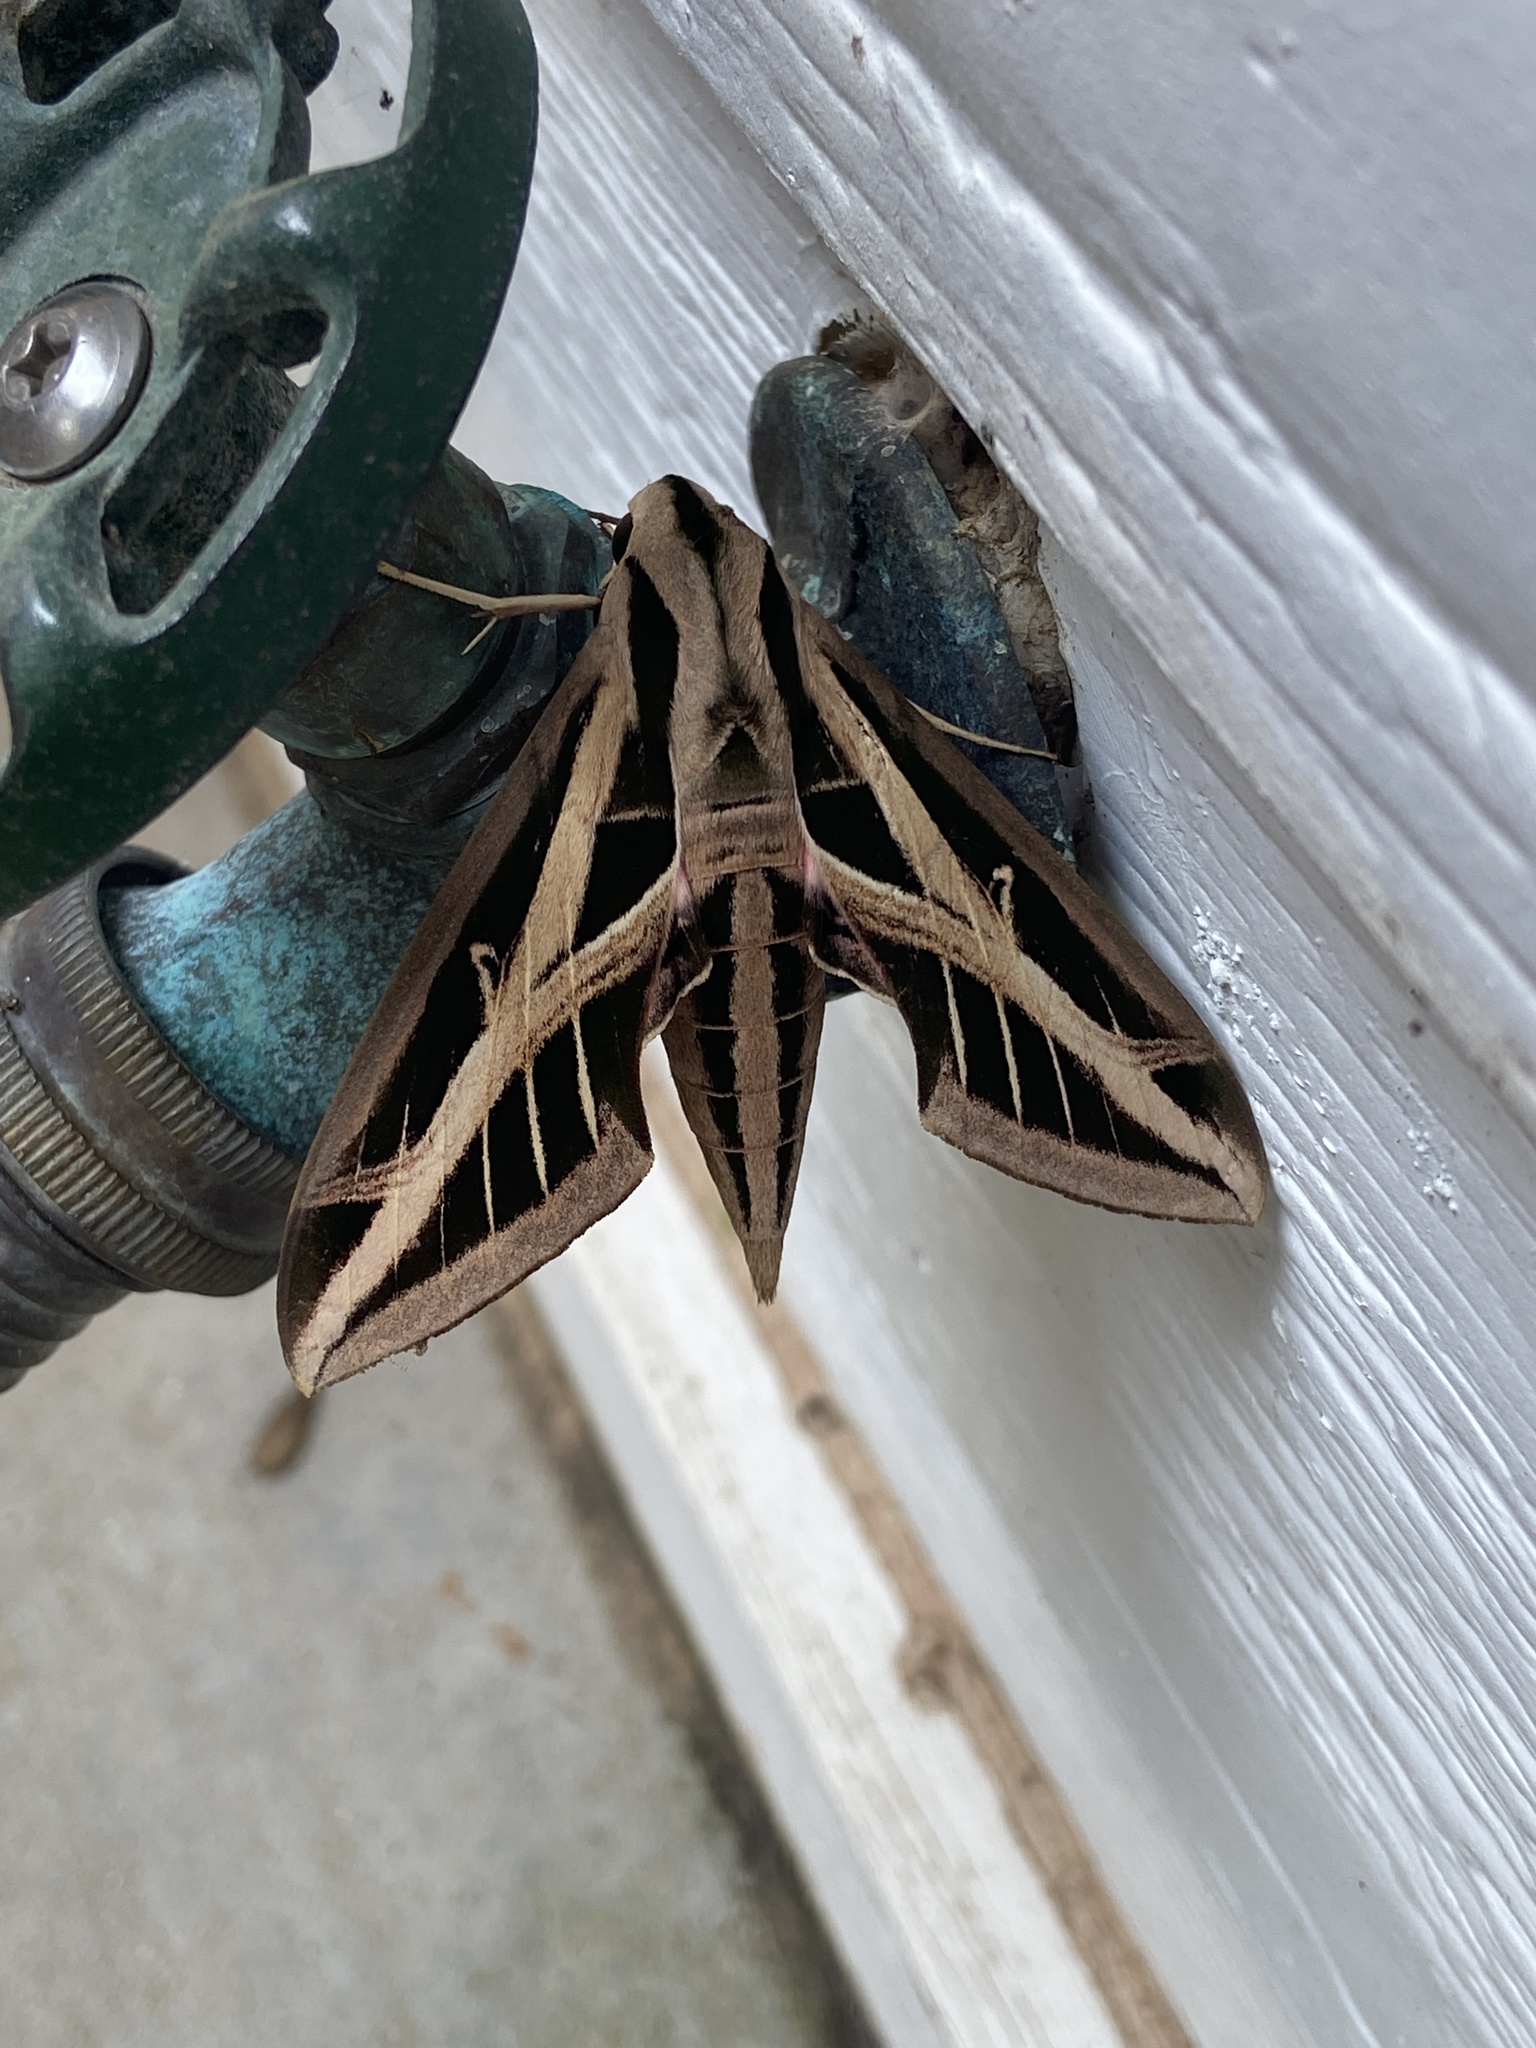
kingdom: Animalia
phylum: Arthropoda
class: Insecta
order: Lepidoptera
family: Sphingidae
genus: Eumorpha
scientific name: Eumorpha fasciatus
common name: Banded sphinx
